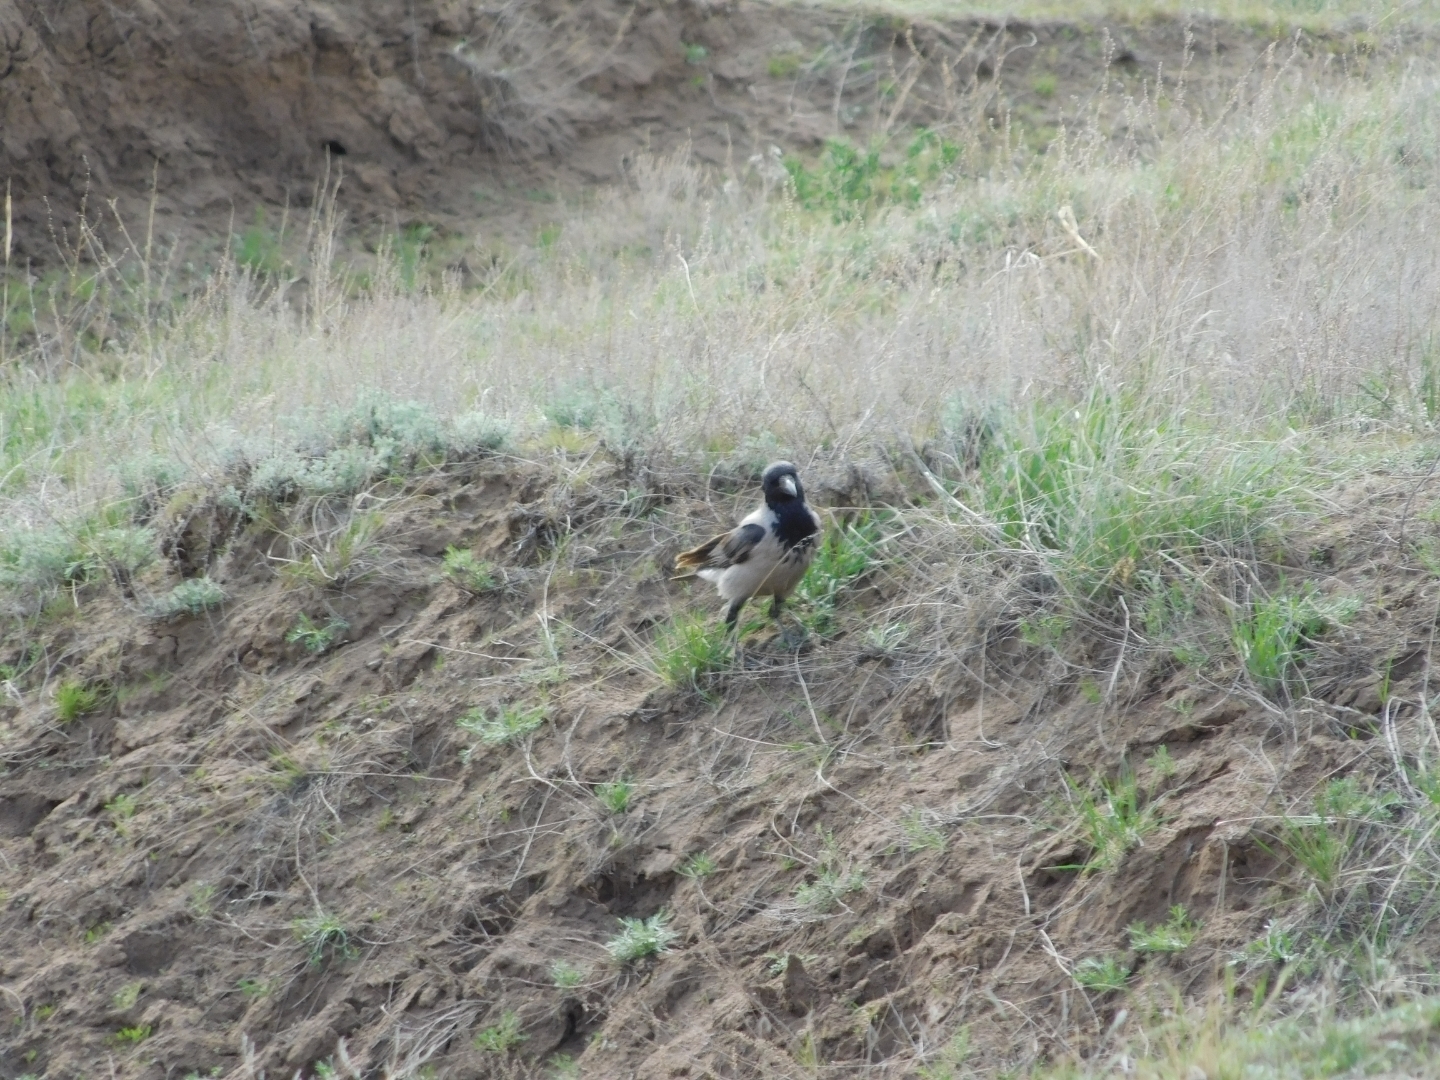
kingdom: Animalia
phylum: Chordata
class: Aves
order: Passeriformes
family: Corvidae
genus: Corvus
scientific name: Corvus cornix
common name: Hooded crow
